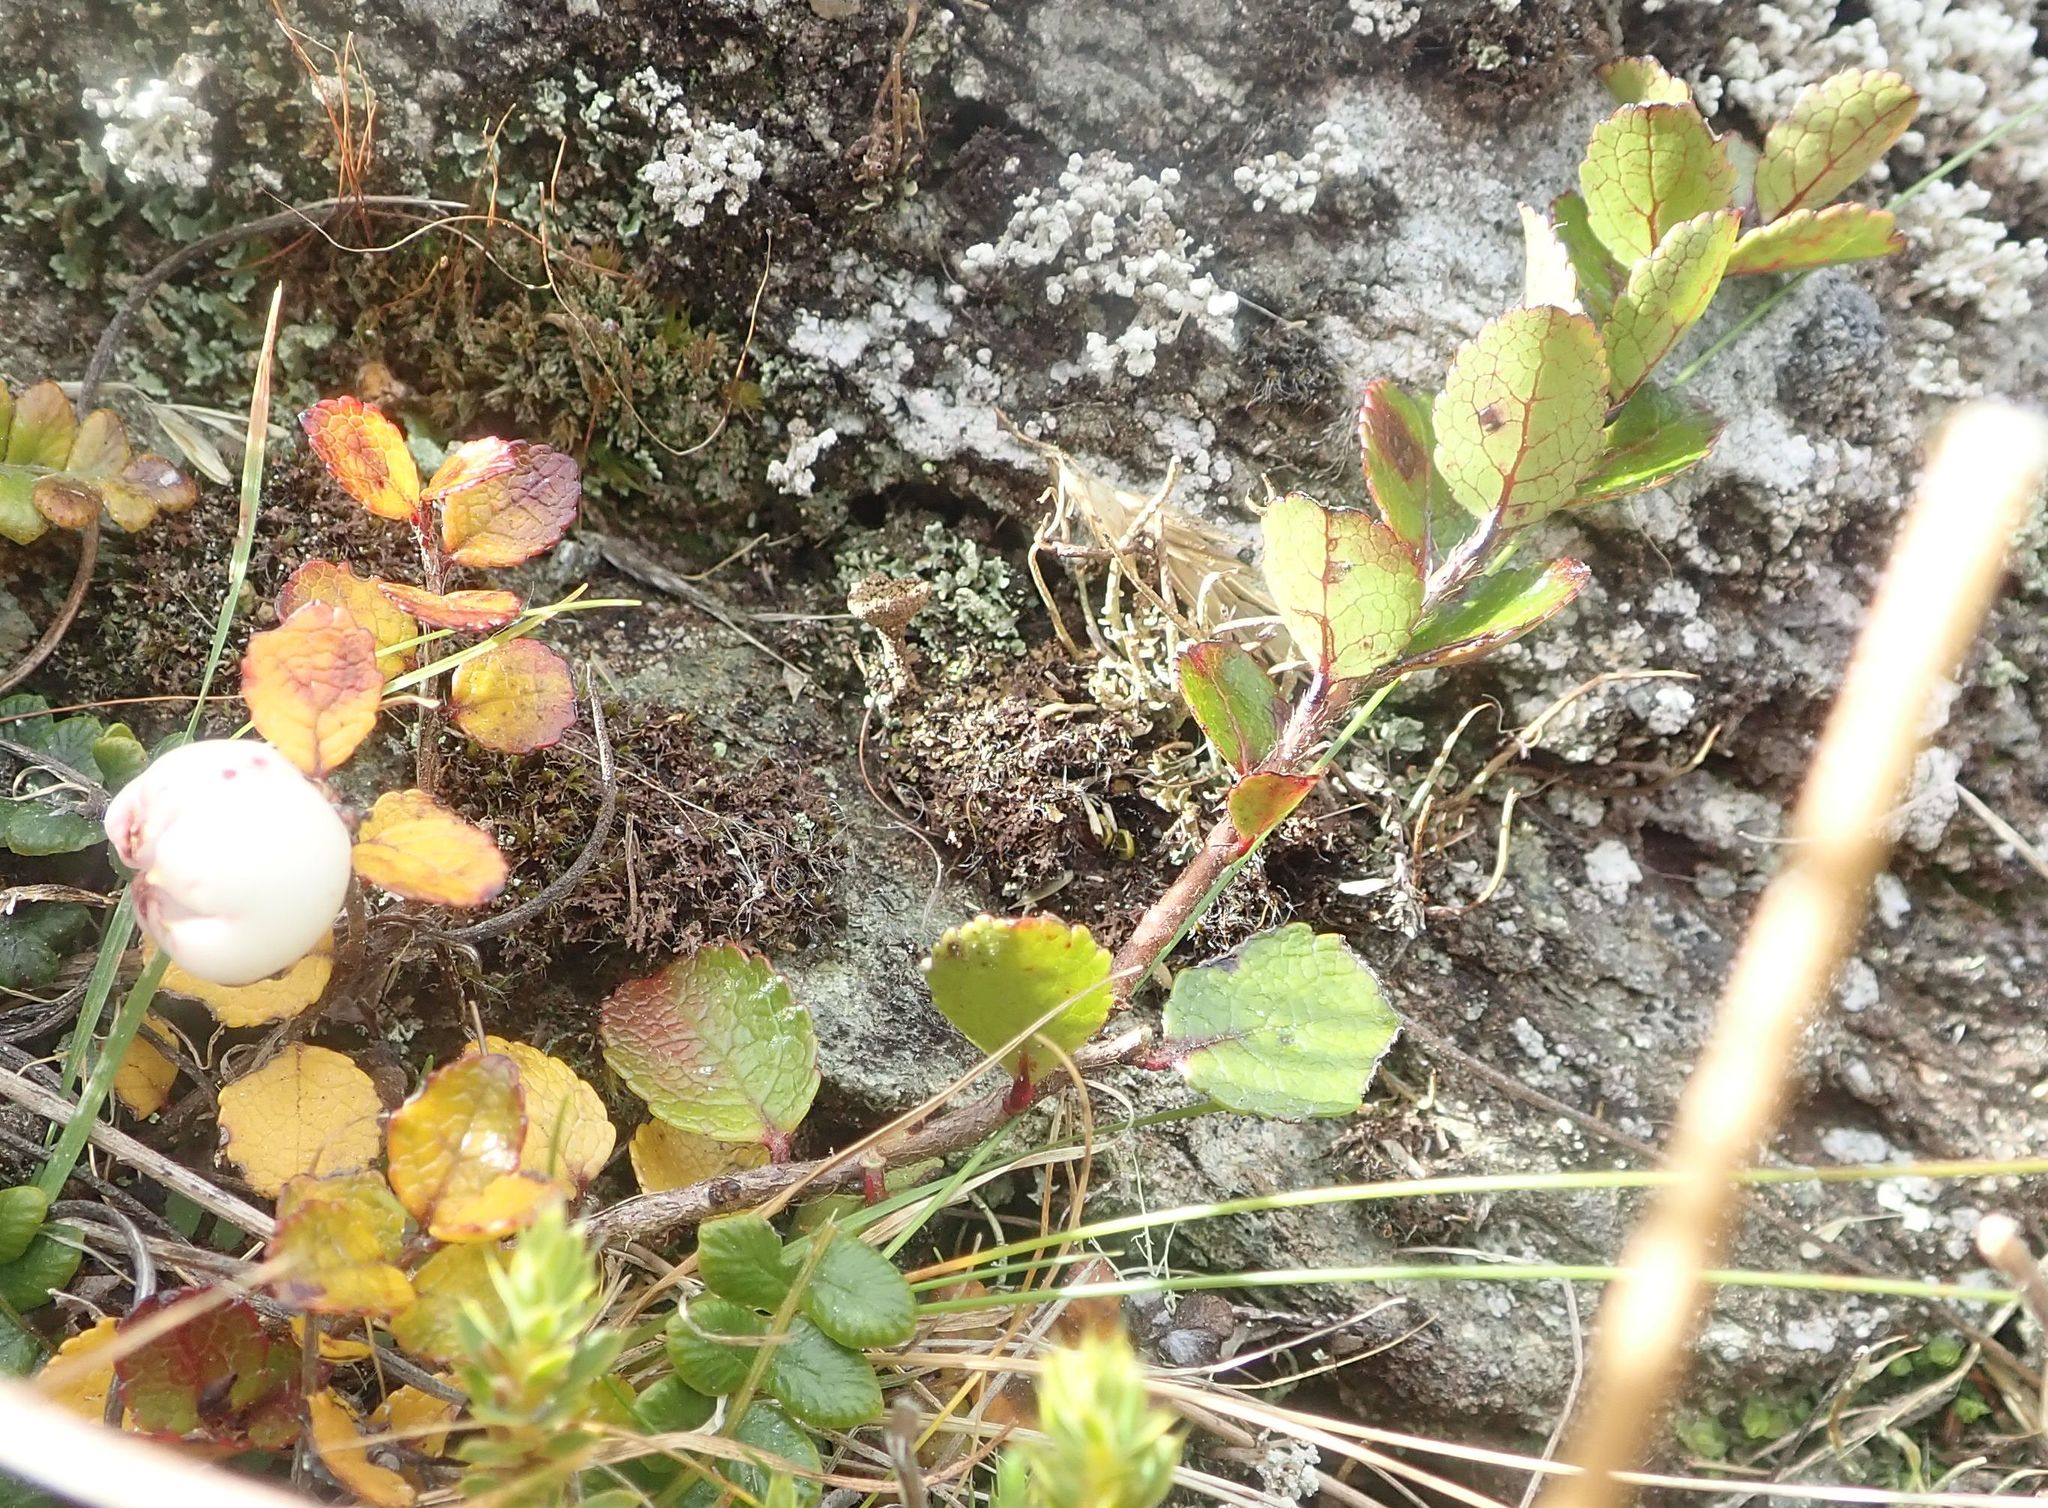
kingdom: Plantae
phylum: Tracheophyta
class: Magnoliopsida
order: Ericales
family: Ericaceae
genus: Gaultheria
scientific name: Gaultheria depressa
